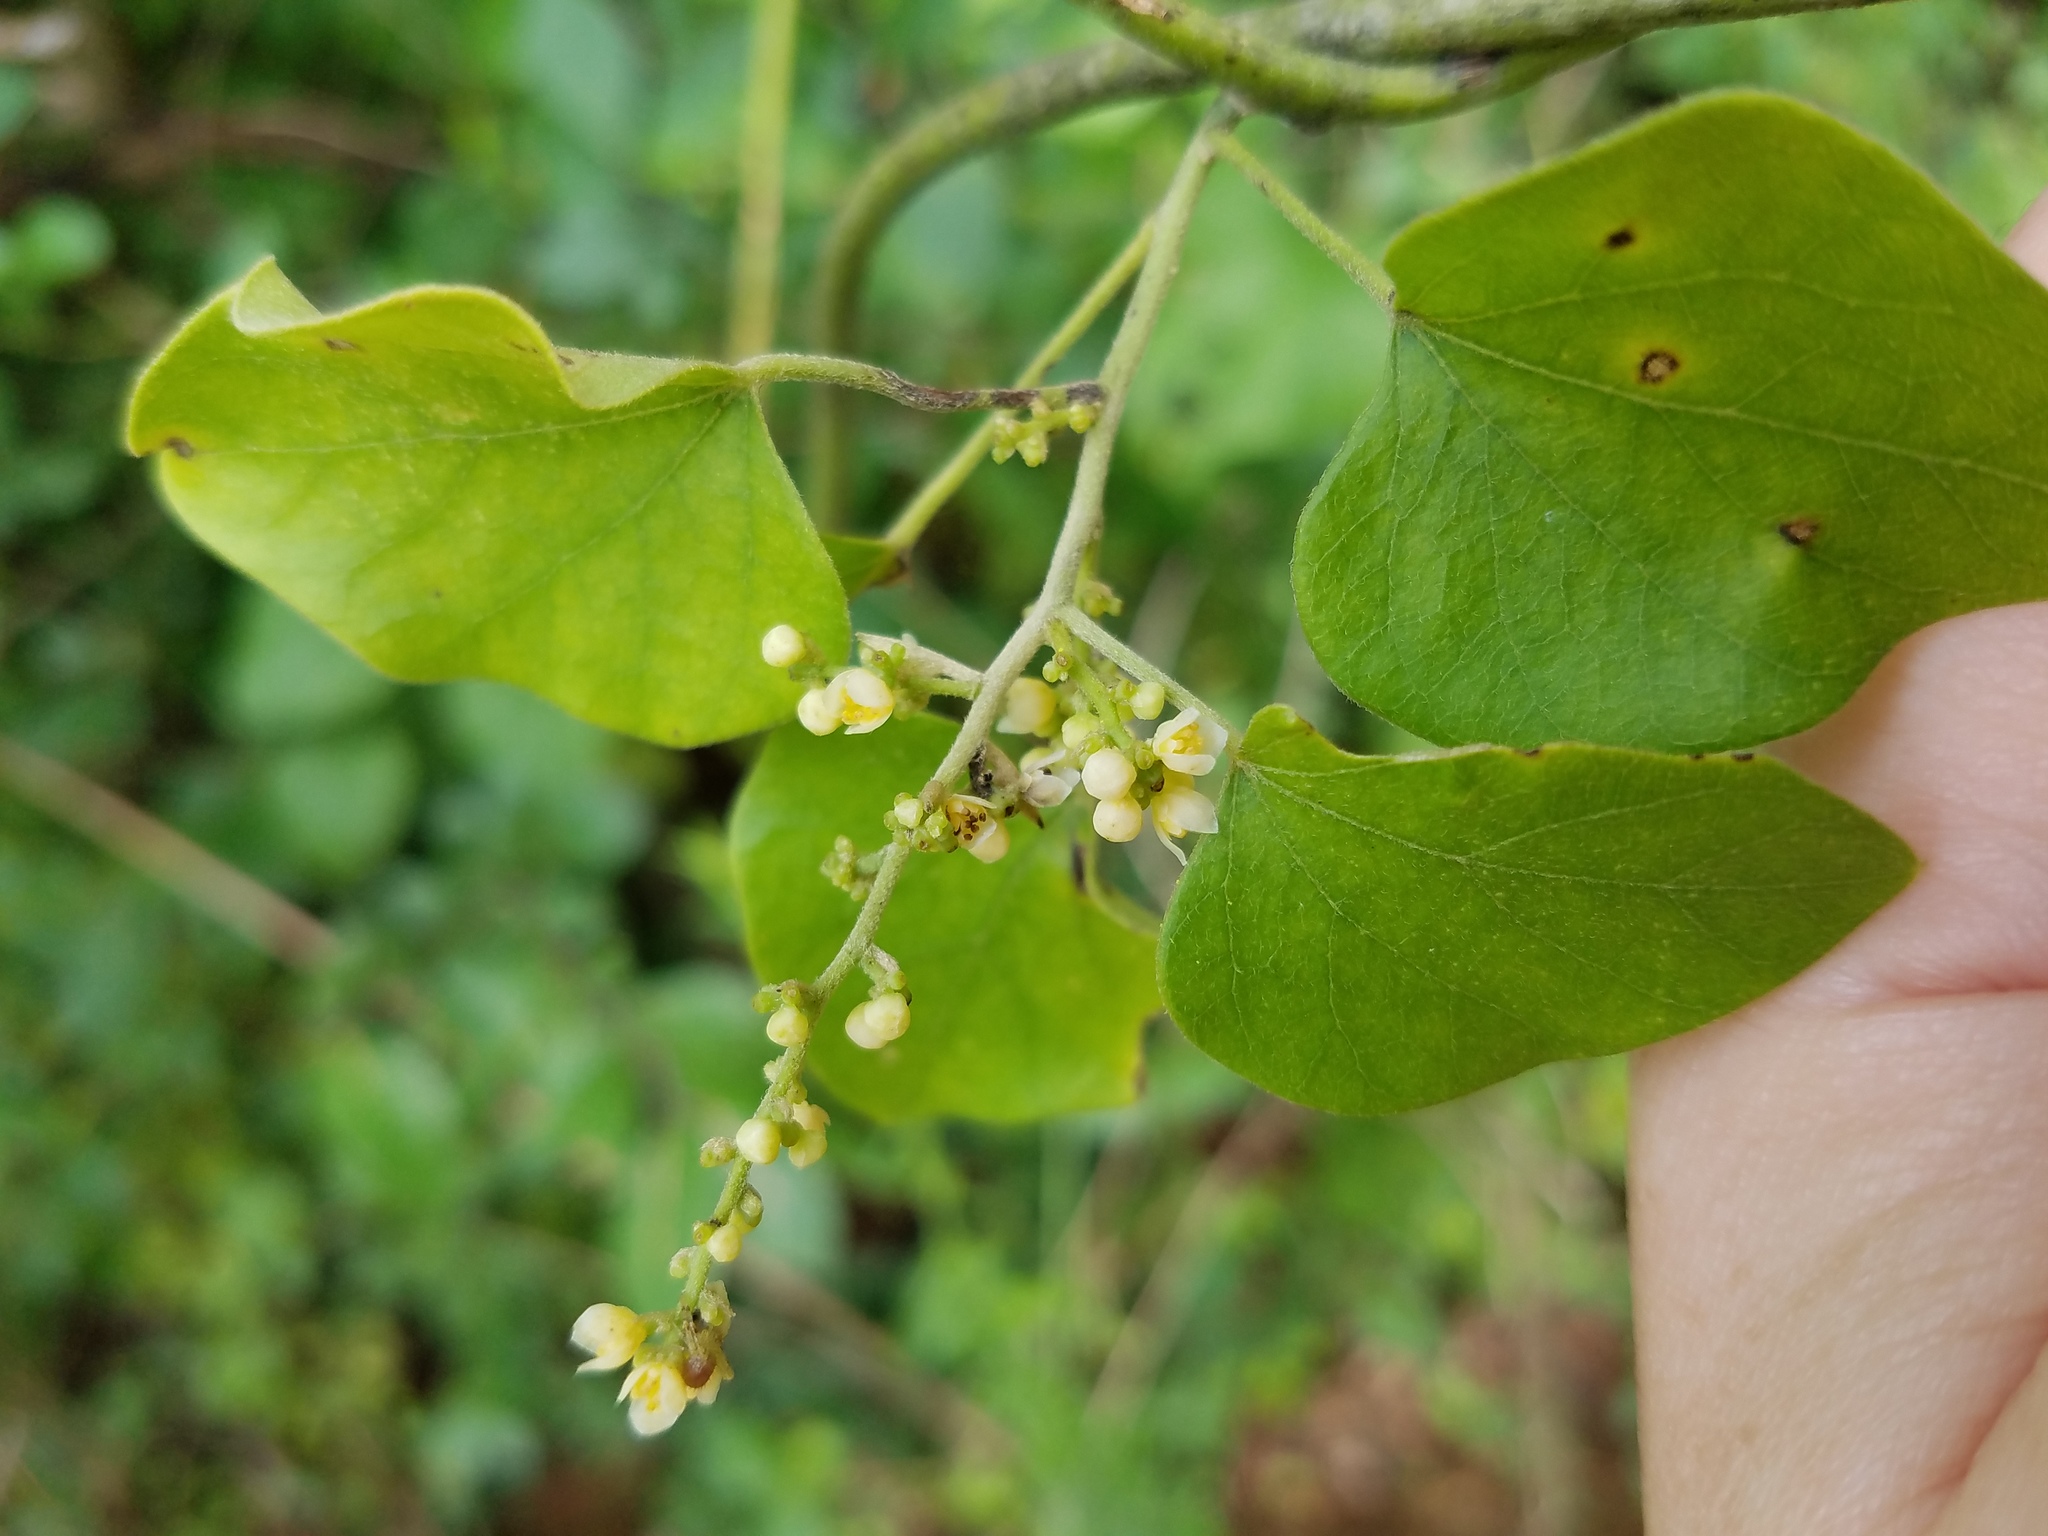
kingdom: Plantae
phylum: Tracheophyta
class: Magnoliopsida
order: Ranunculales
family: Menispermaceae
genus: Cocculus
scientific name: Cocculus carolinus
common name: Carolina moonseed
